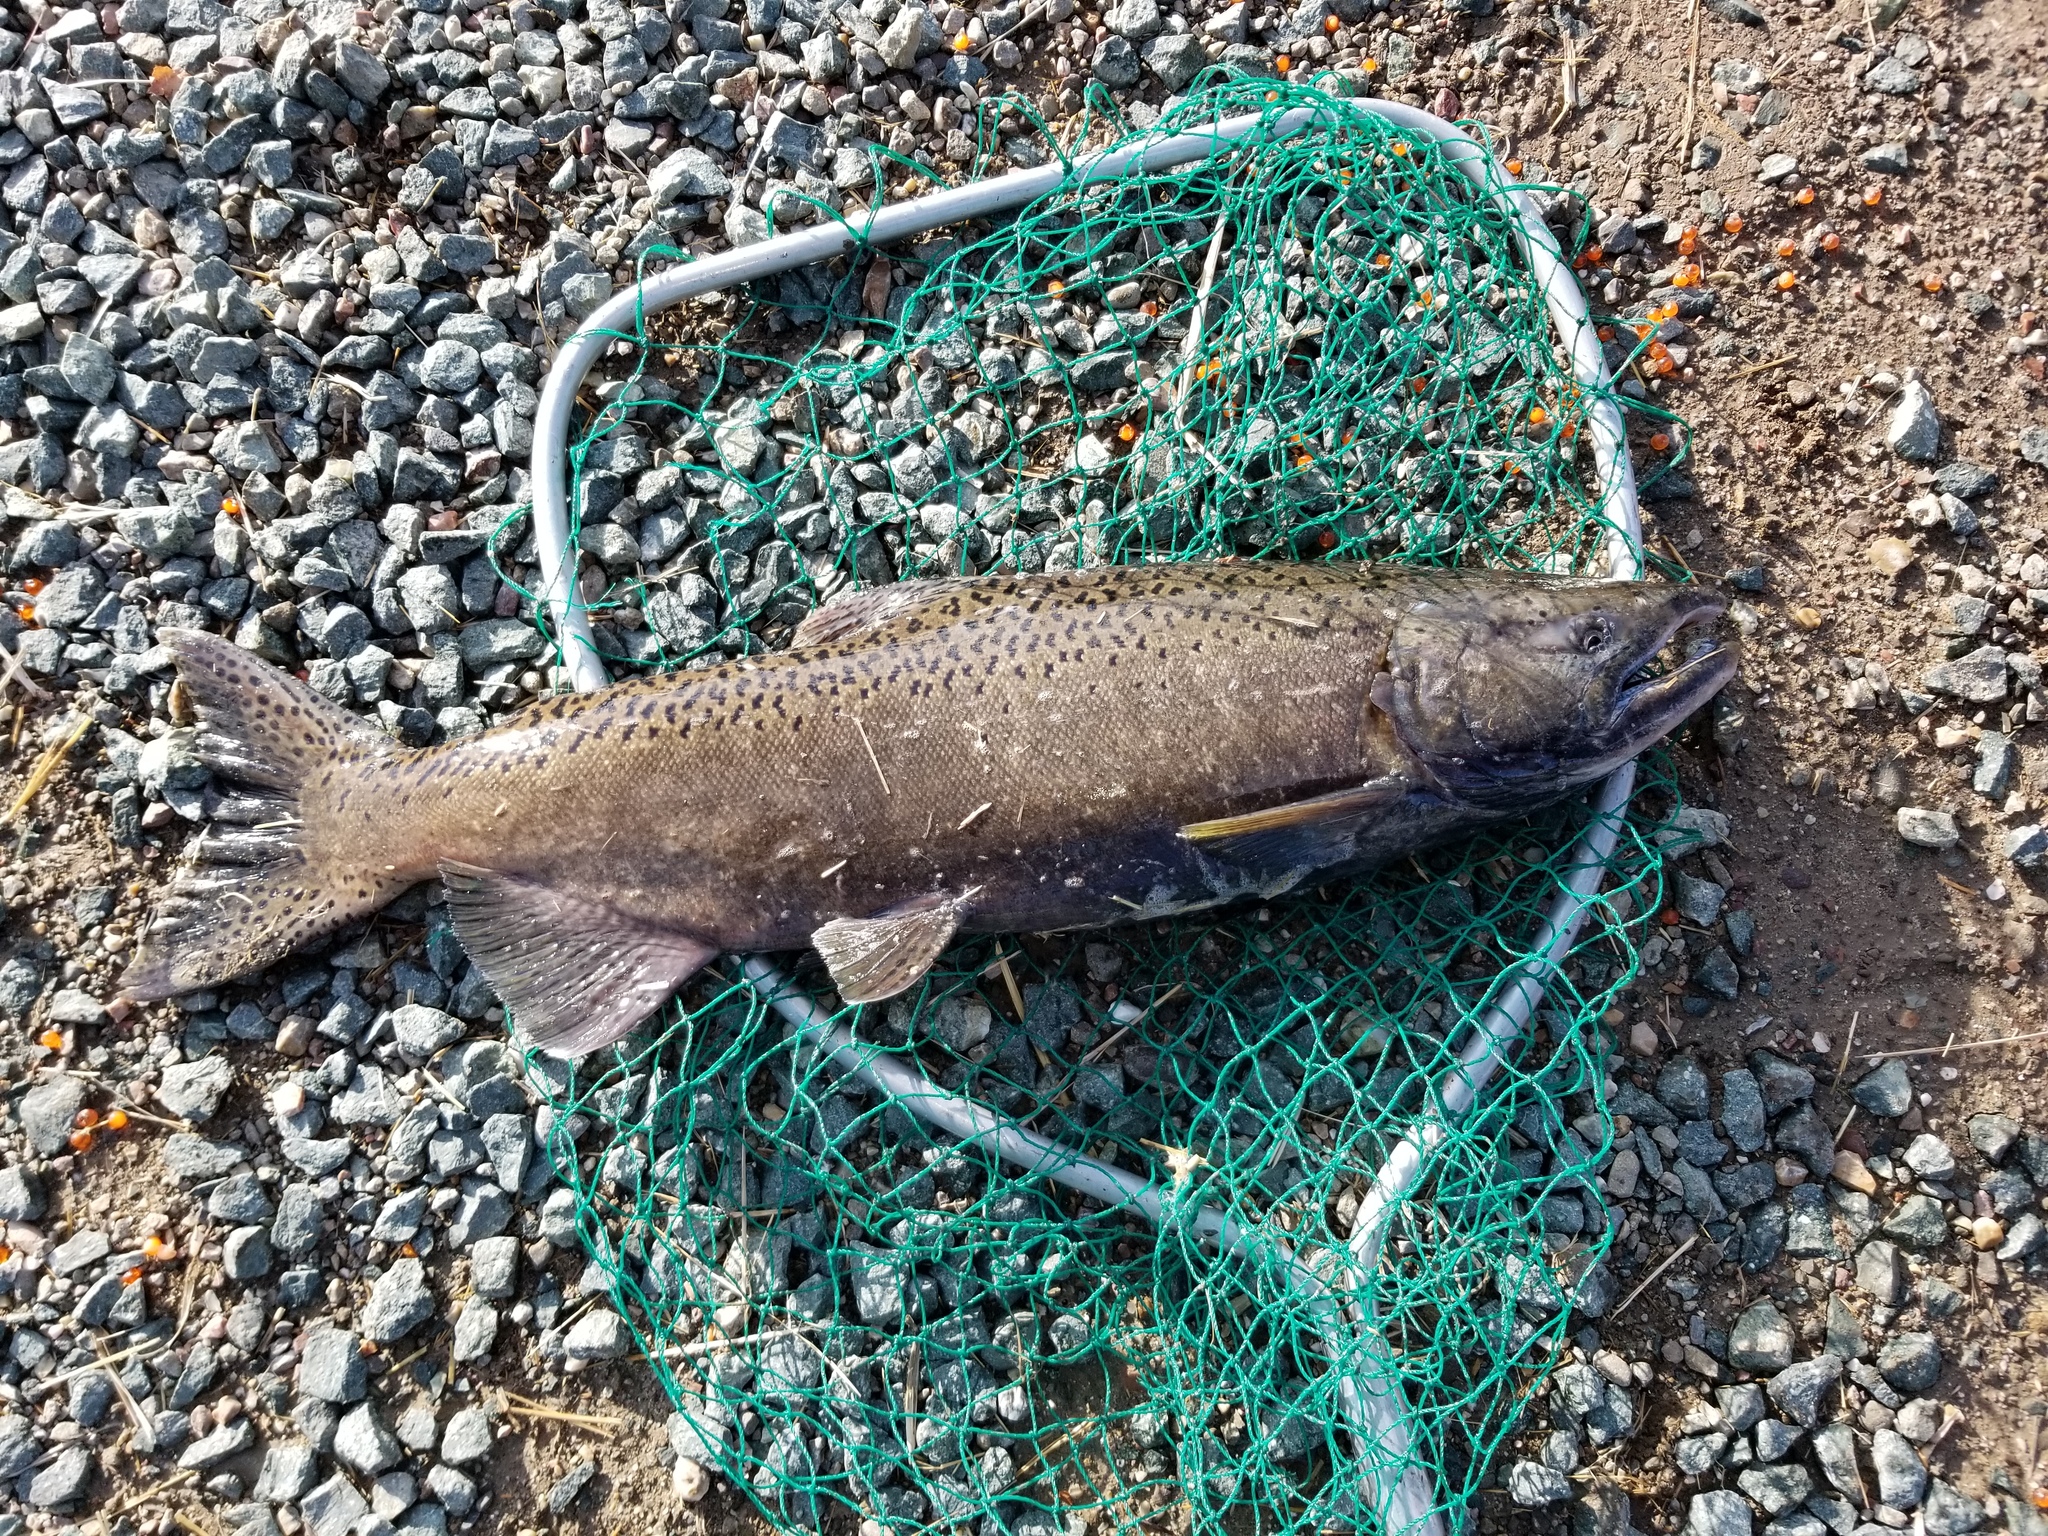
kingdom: Animalia
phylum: Chordata
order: Salmoniformes
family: Salmonidae
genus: Oncorhynchus
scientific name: Oncorhynchus tshawytscha
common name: Chinook salmon
